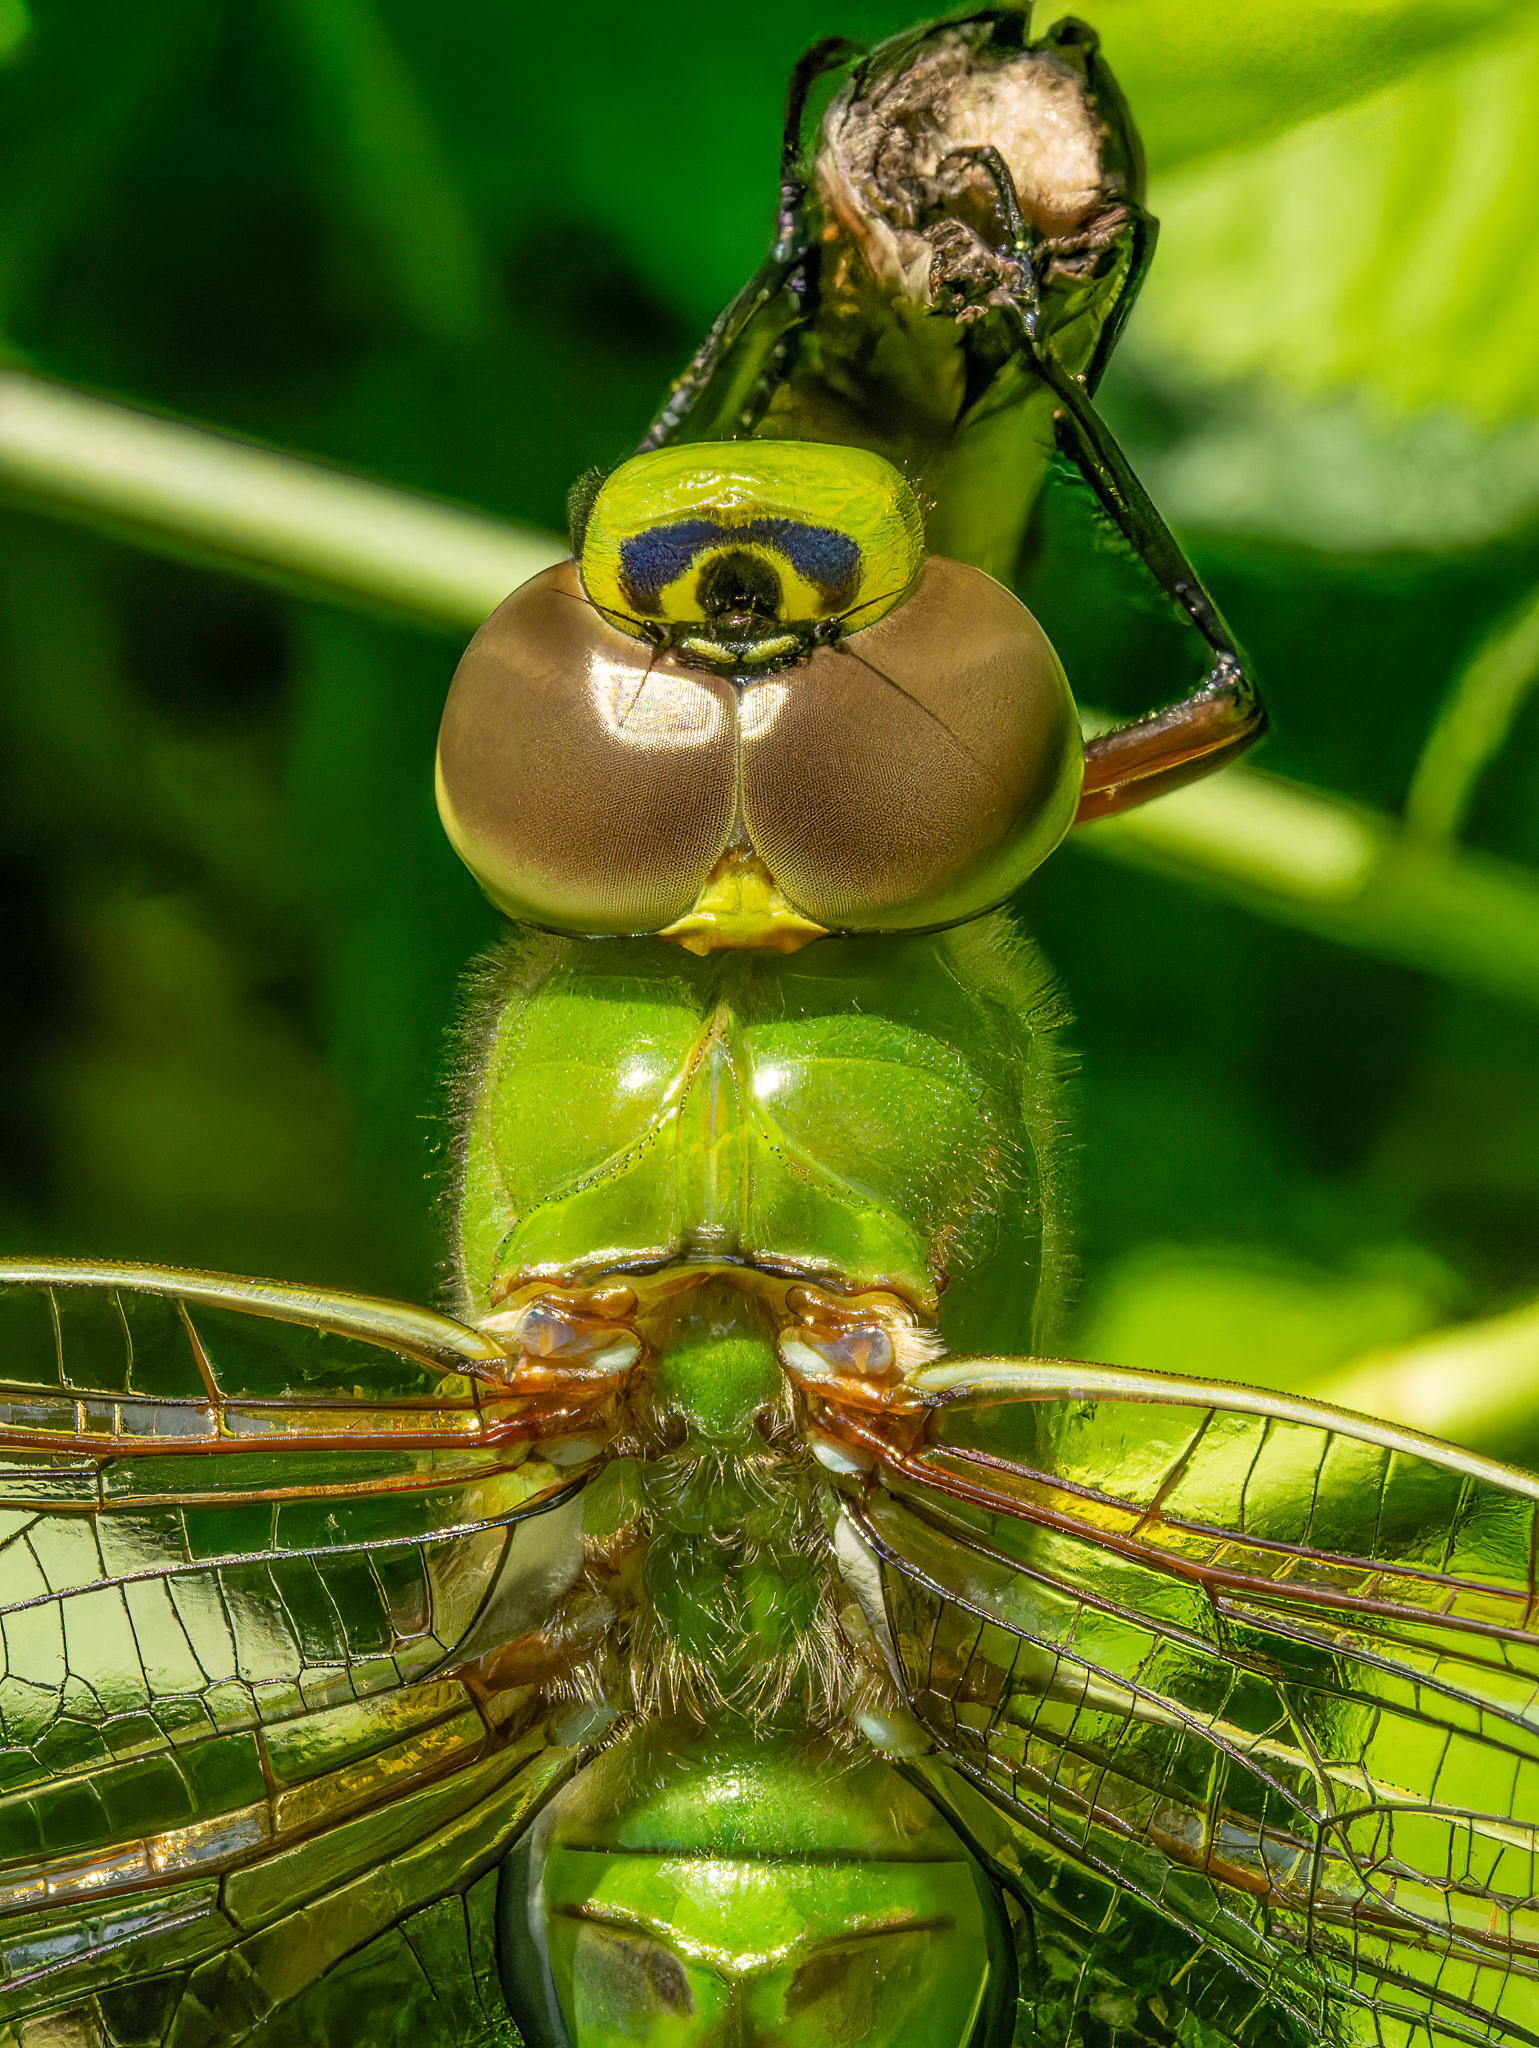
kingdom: Animalia
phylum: Arthropoda
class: Insecta
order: Odonata
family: Aeshnidae
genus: Anax
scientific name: Anax junius
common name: Common green darner
